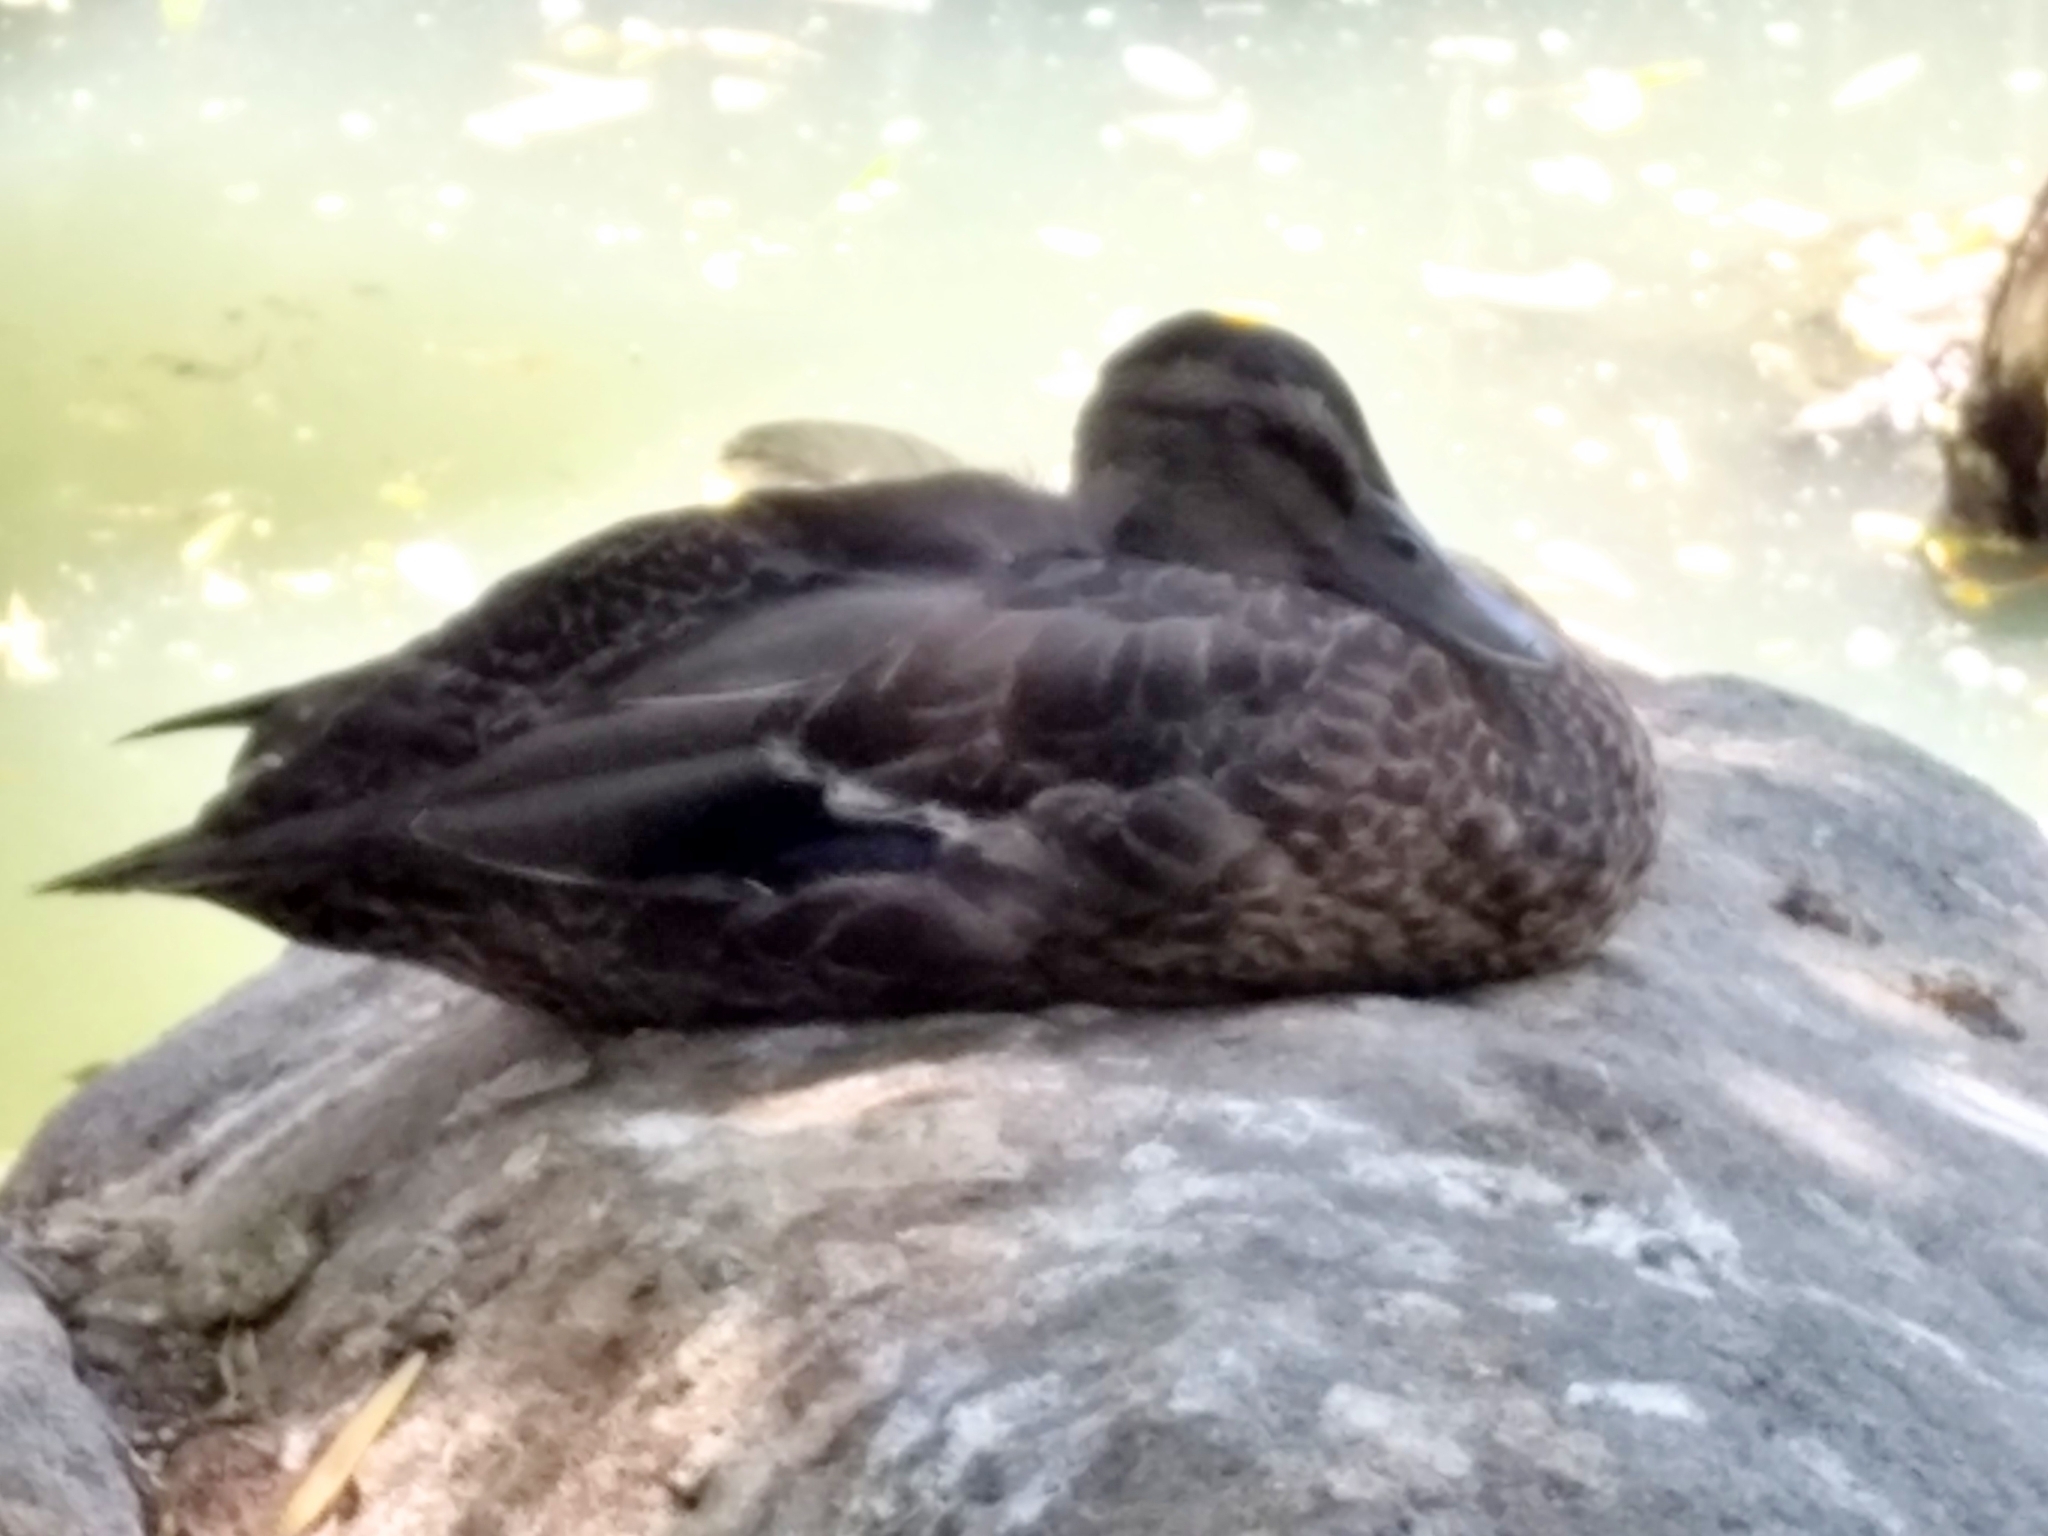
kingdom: Animalia
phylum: Chordata
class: Aves
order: Anseriformes
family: Anatidae
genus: Anas
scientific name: Anas platyrhynchos
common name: Mallard
